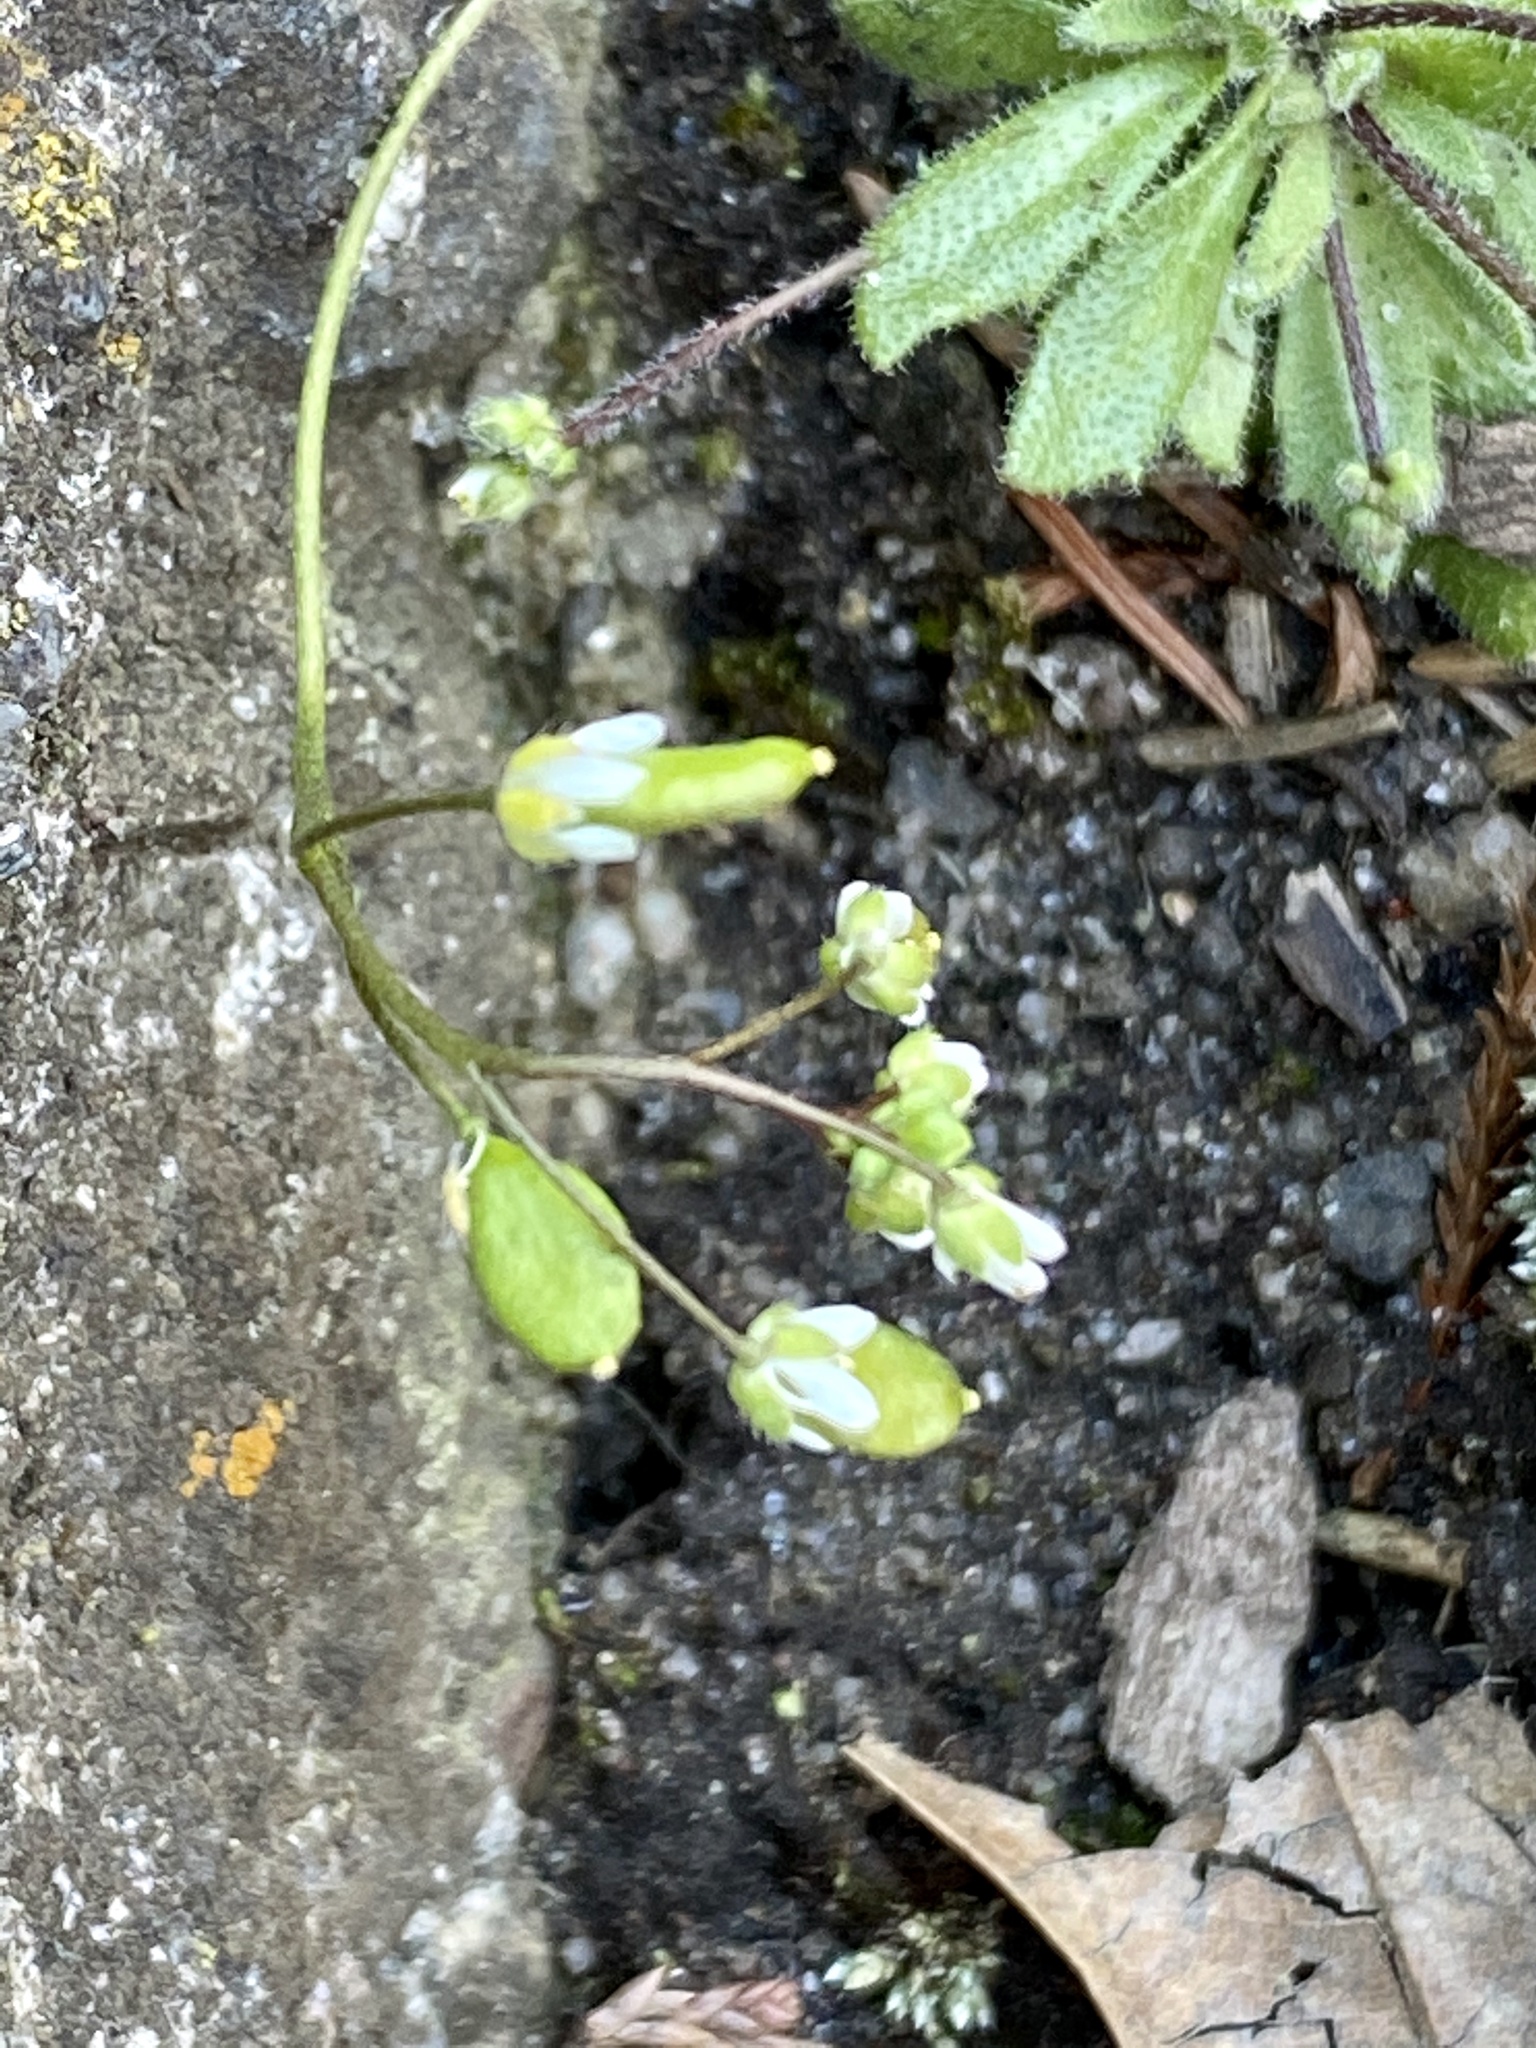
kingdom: Plantae
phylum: Tracheophyta
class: Magnoliopsida
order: Brassicales
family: Brassicaceae
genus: Draba
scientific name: Draba verna
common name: Spring draba
